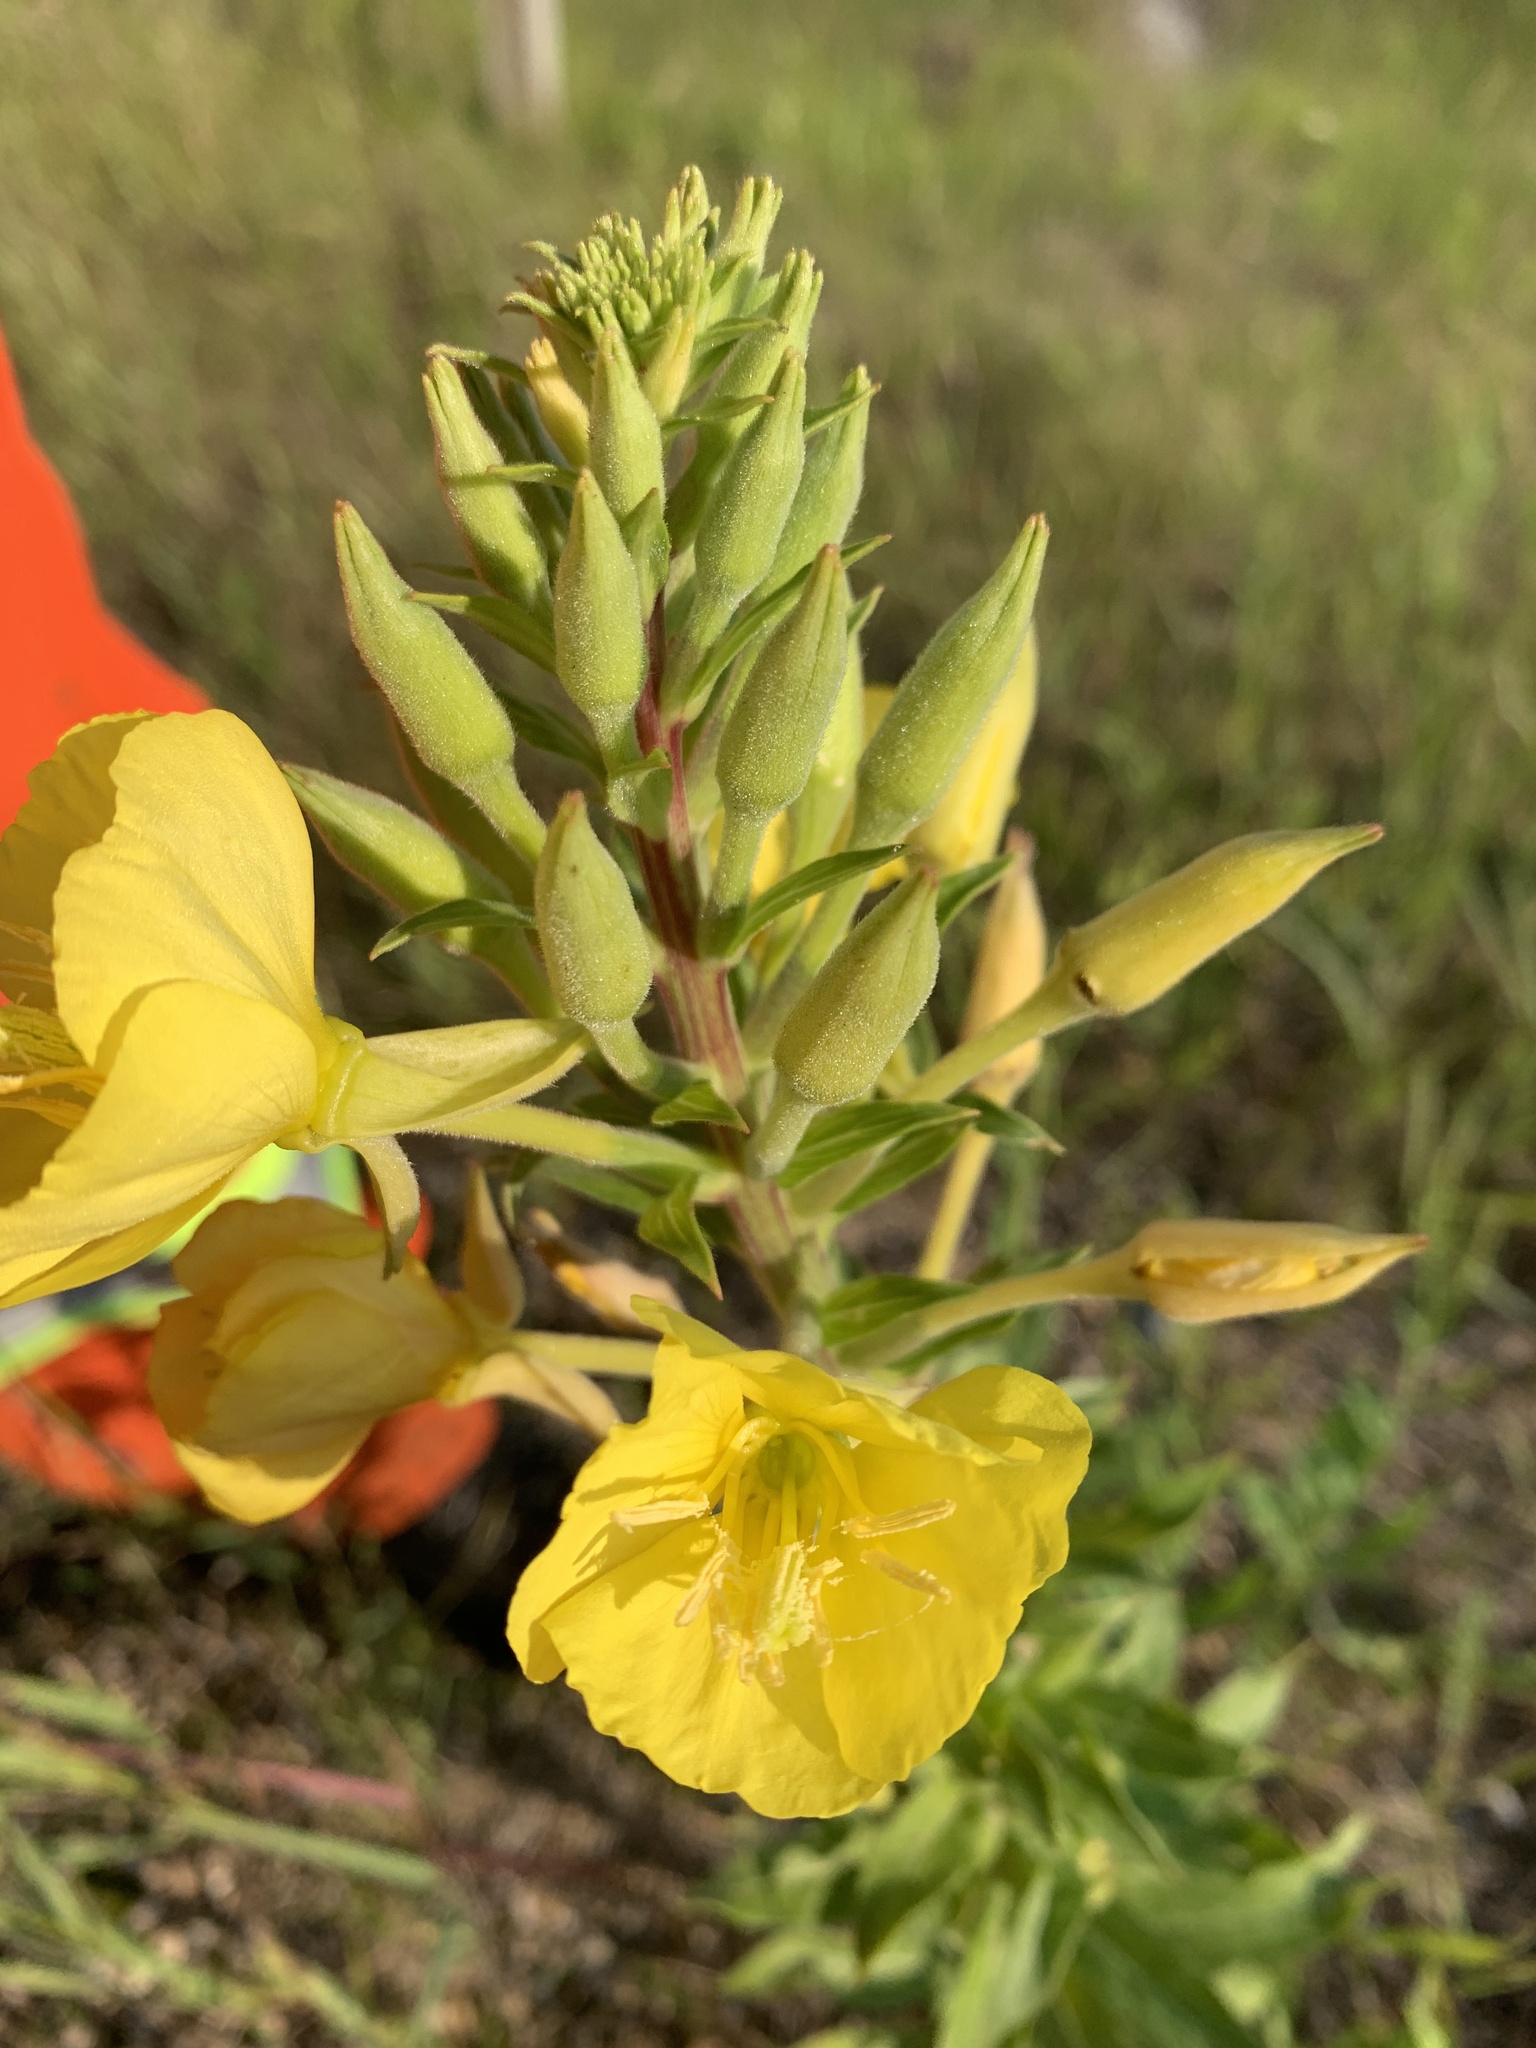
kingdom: Plantae
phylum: Tracheophyta
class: Magnoliopsida
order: Myrtales
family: Onagraceae
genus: Oenothera
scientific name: Oenothera biennis
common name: Common evening-primrose
